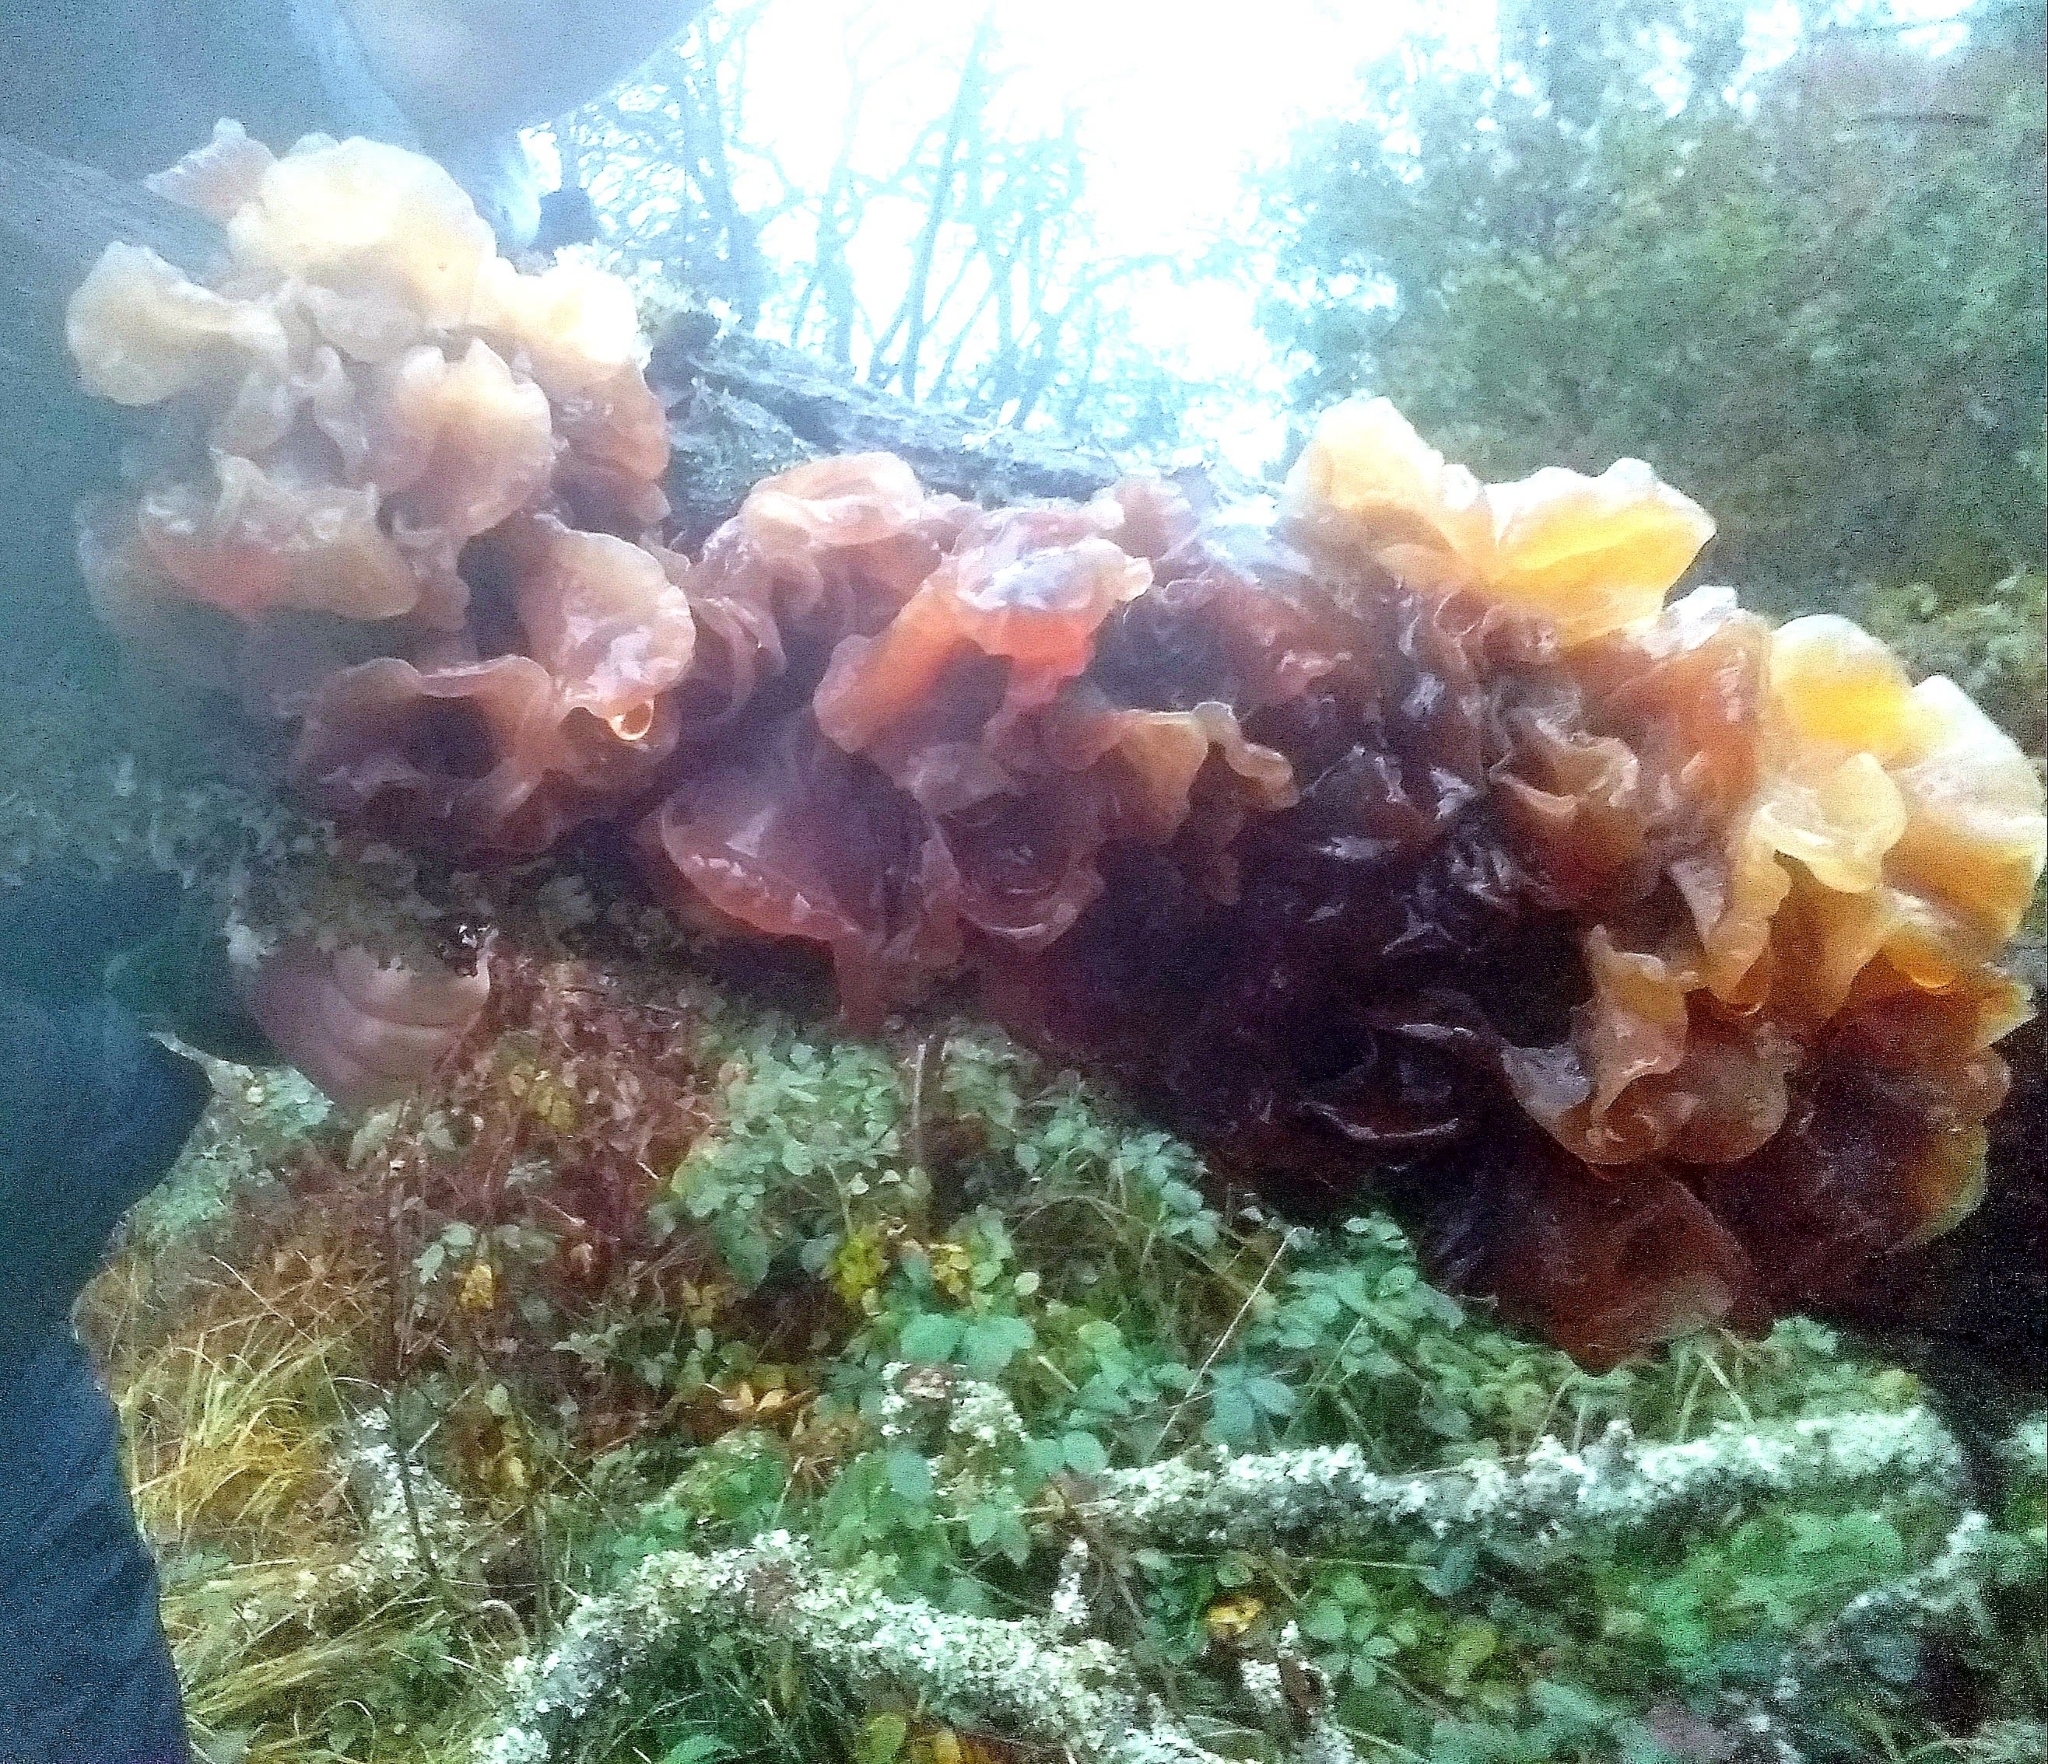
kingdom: Fungi
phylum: Basidiomycota
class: Tremellomycetes
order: Tremellales
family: Tremellaceae
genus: Phaeotremella
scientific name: Phaeotremella frondosa
